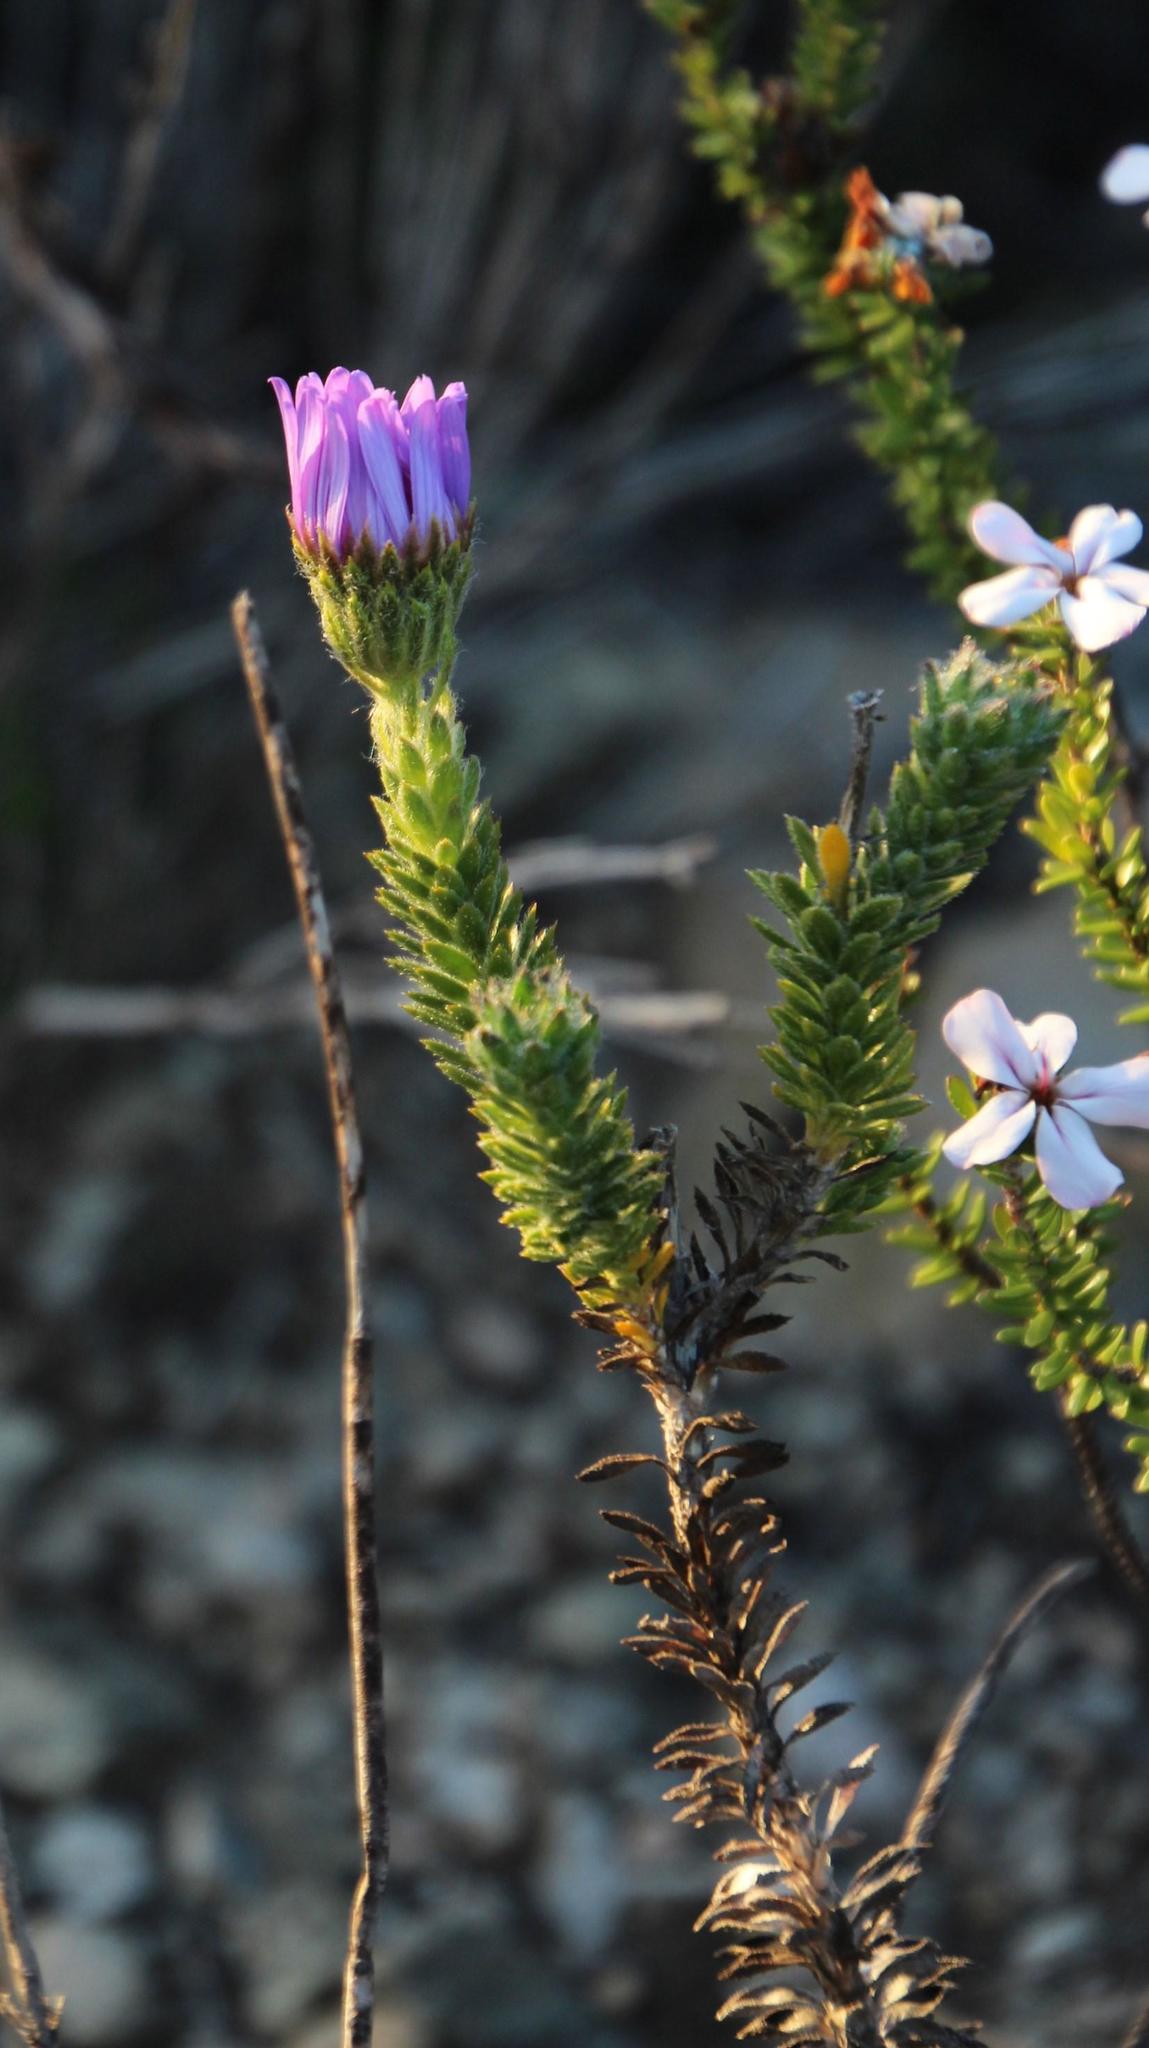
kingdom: Plantae
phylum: Tracheophyta
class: Magnoliopsida
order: Asterales
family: Asteraceae
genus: Felicia
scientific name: Felicia nordenstamii
